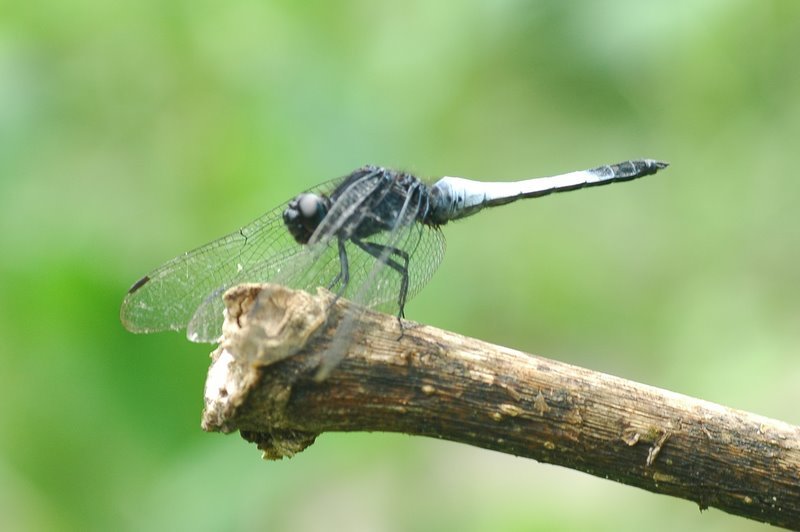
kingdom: Animalia
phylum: Arthropoda
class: Insecta
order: Odonata
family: Libellulidae
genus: Orthetrum
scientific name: Orthetrum triangulare
